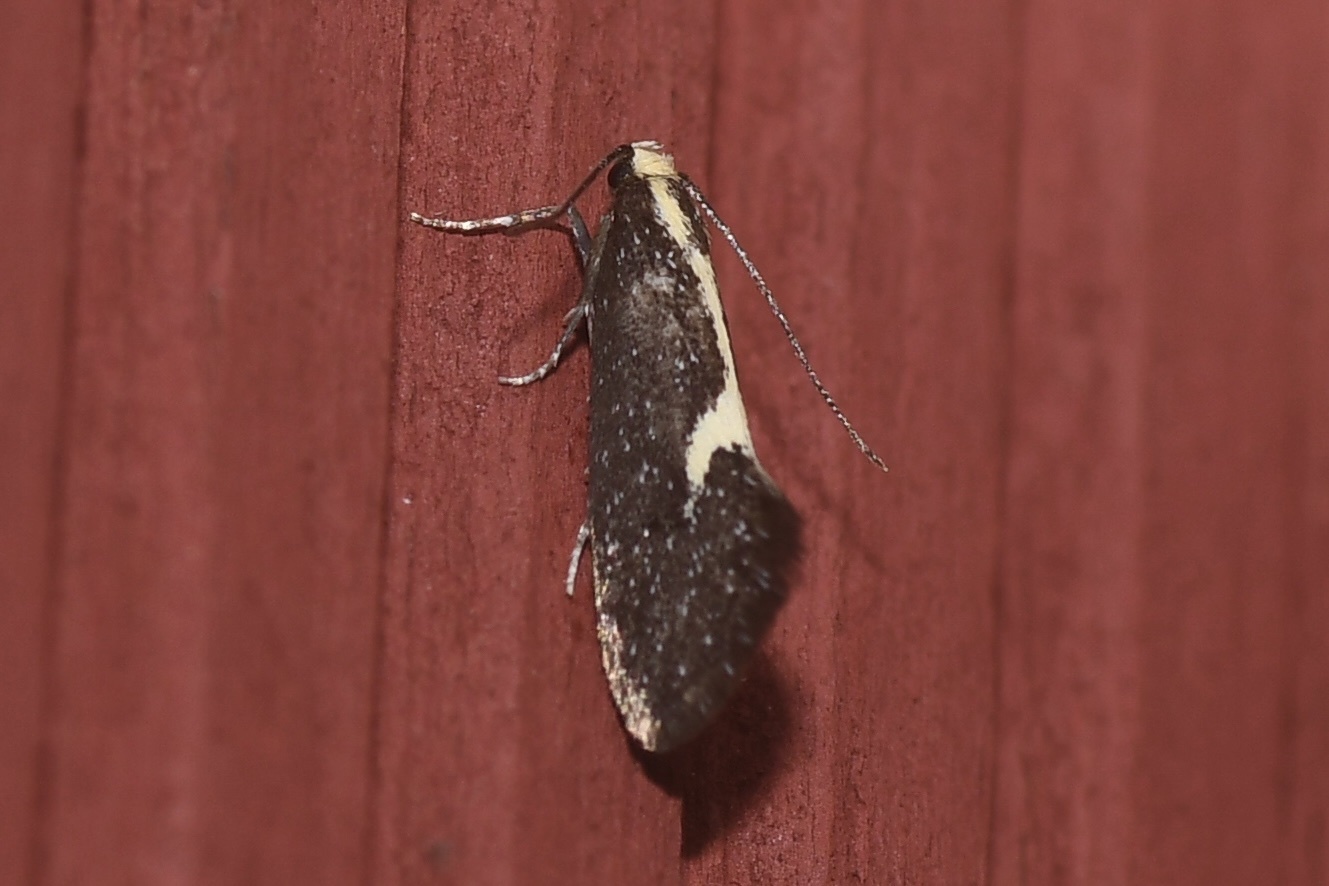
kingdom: Animalia
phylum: Arthropoda
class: Insecta
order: Lepidoptera
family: Oecophoridae
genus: Polix
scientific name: Polix coloradella
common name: Skunk moth
